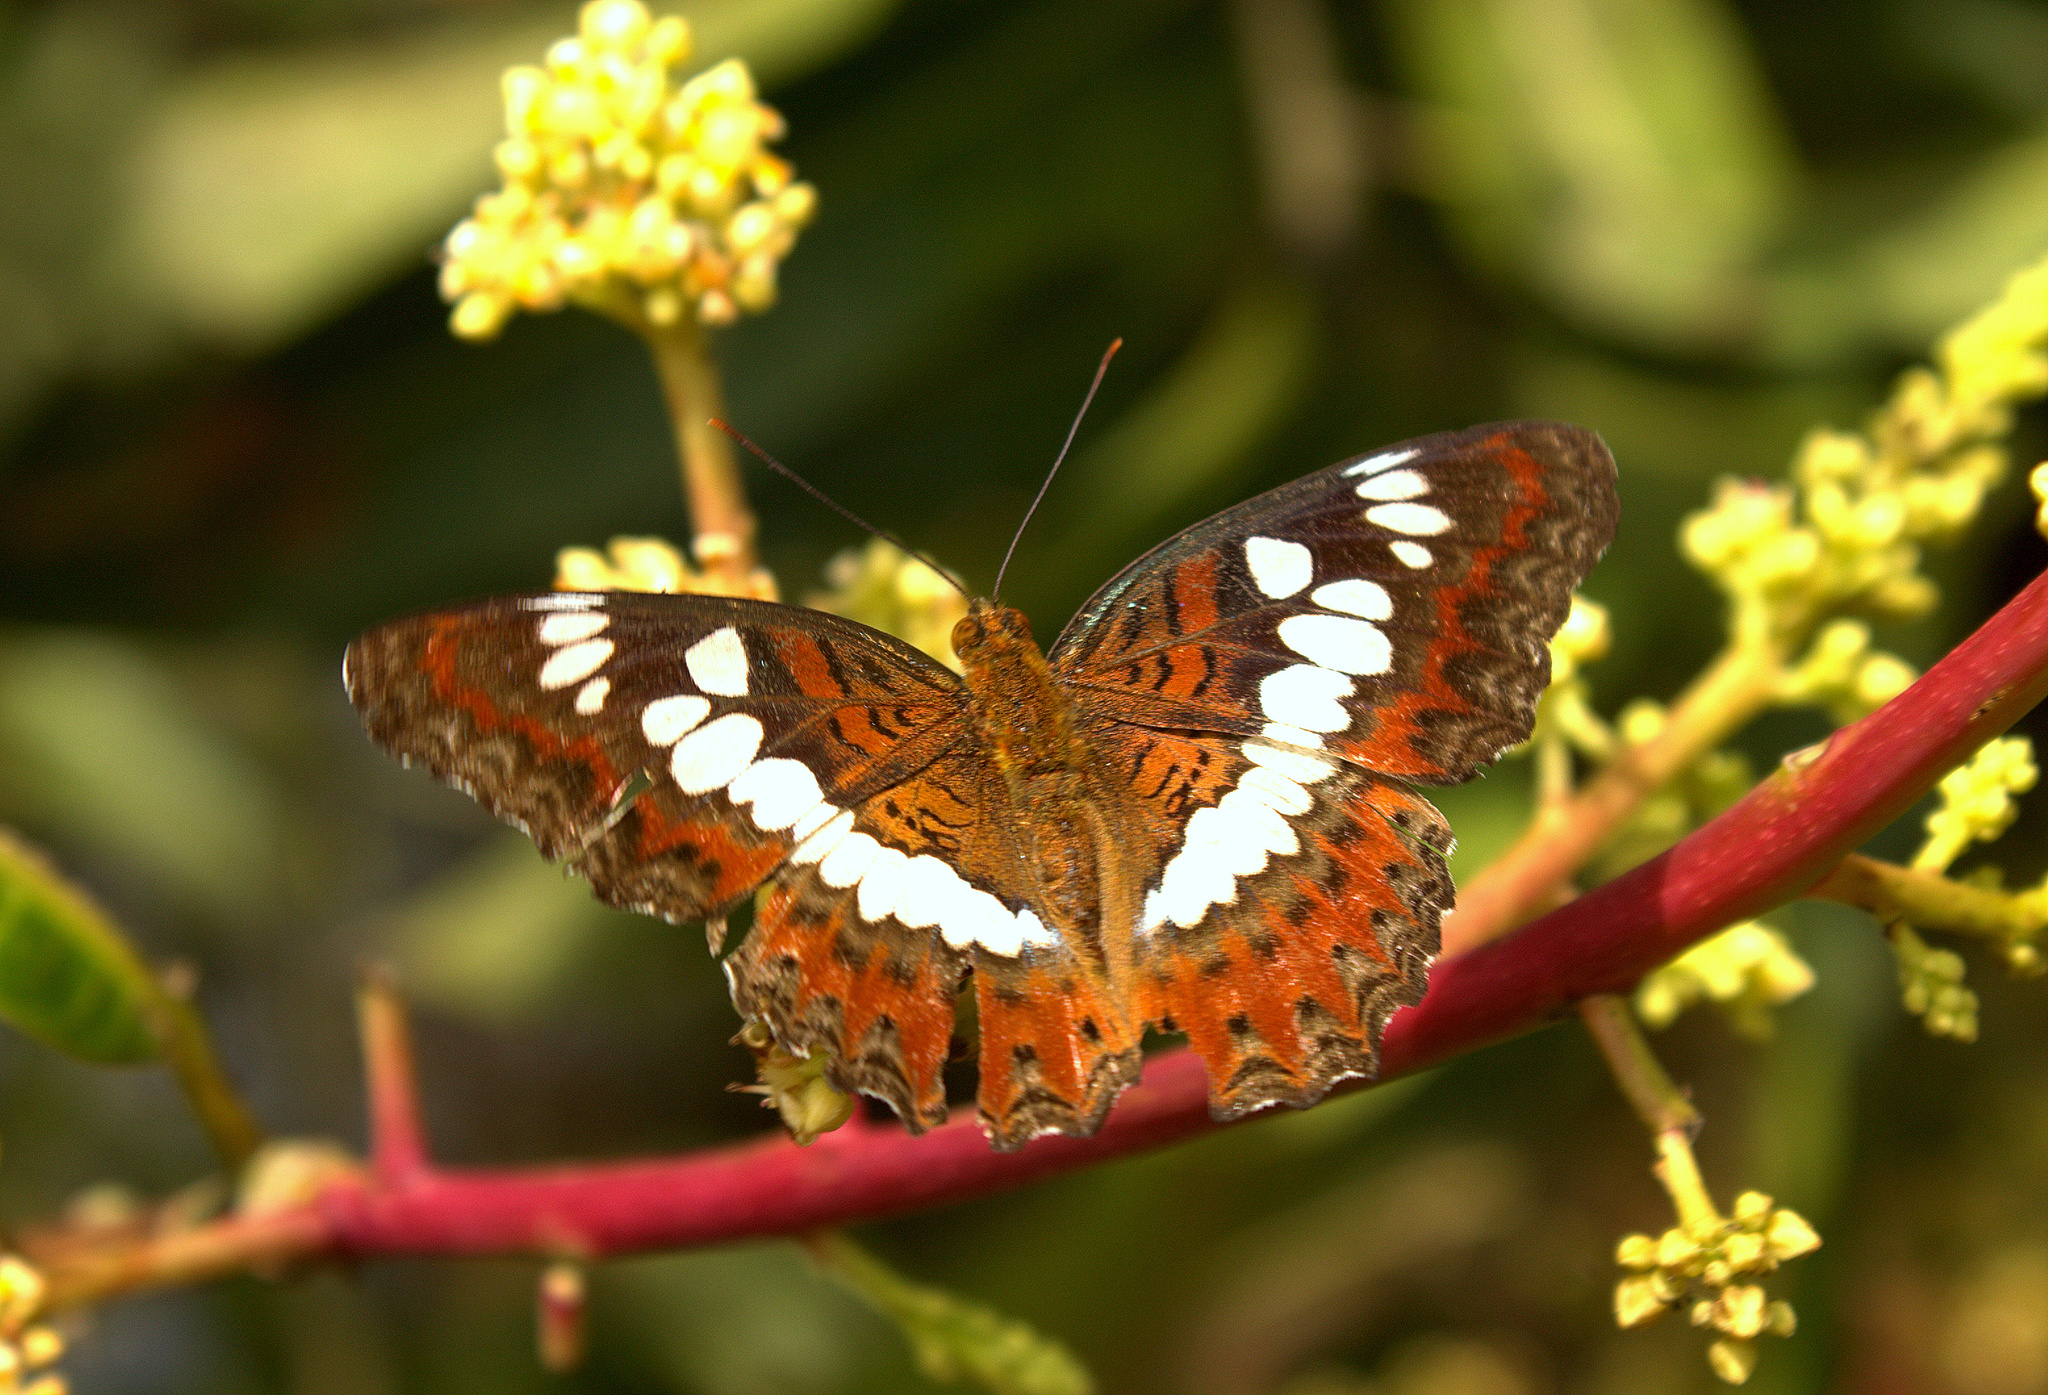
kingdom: Animalia
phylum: Arthropoda
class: Insecta
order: Lepidoptera
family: Nymphalidae
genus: Limenitis
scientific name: Limenitis Moduza procris
